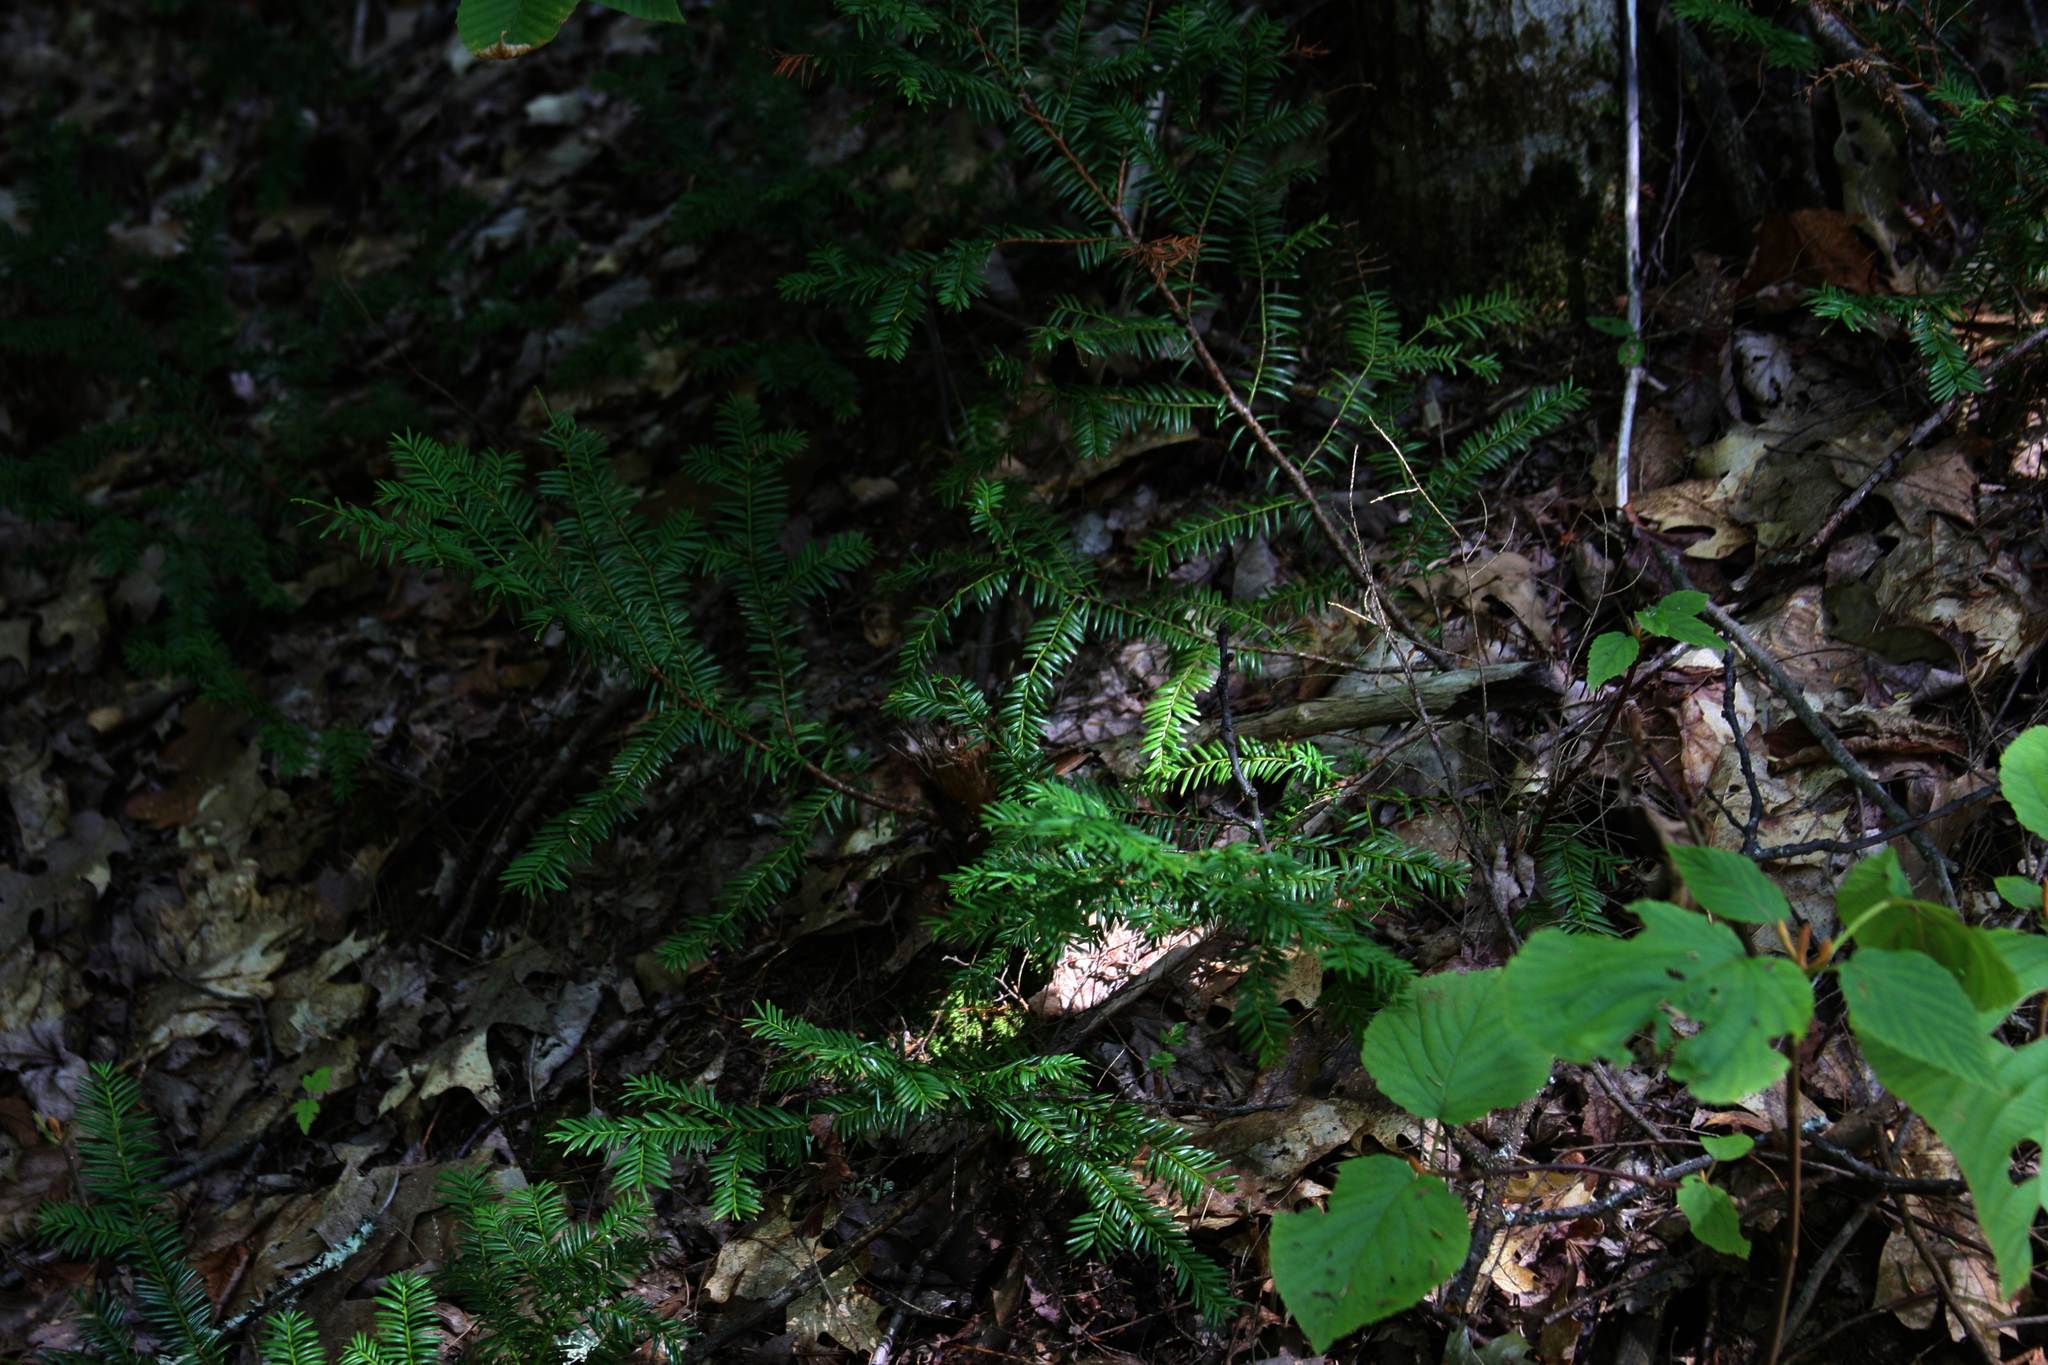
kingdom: Plantae
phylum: Tracheophyta
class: Pinopsida
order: Pinales
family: Taxaceae
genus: Taxus
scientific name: Taxus canadensis
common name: American yew
